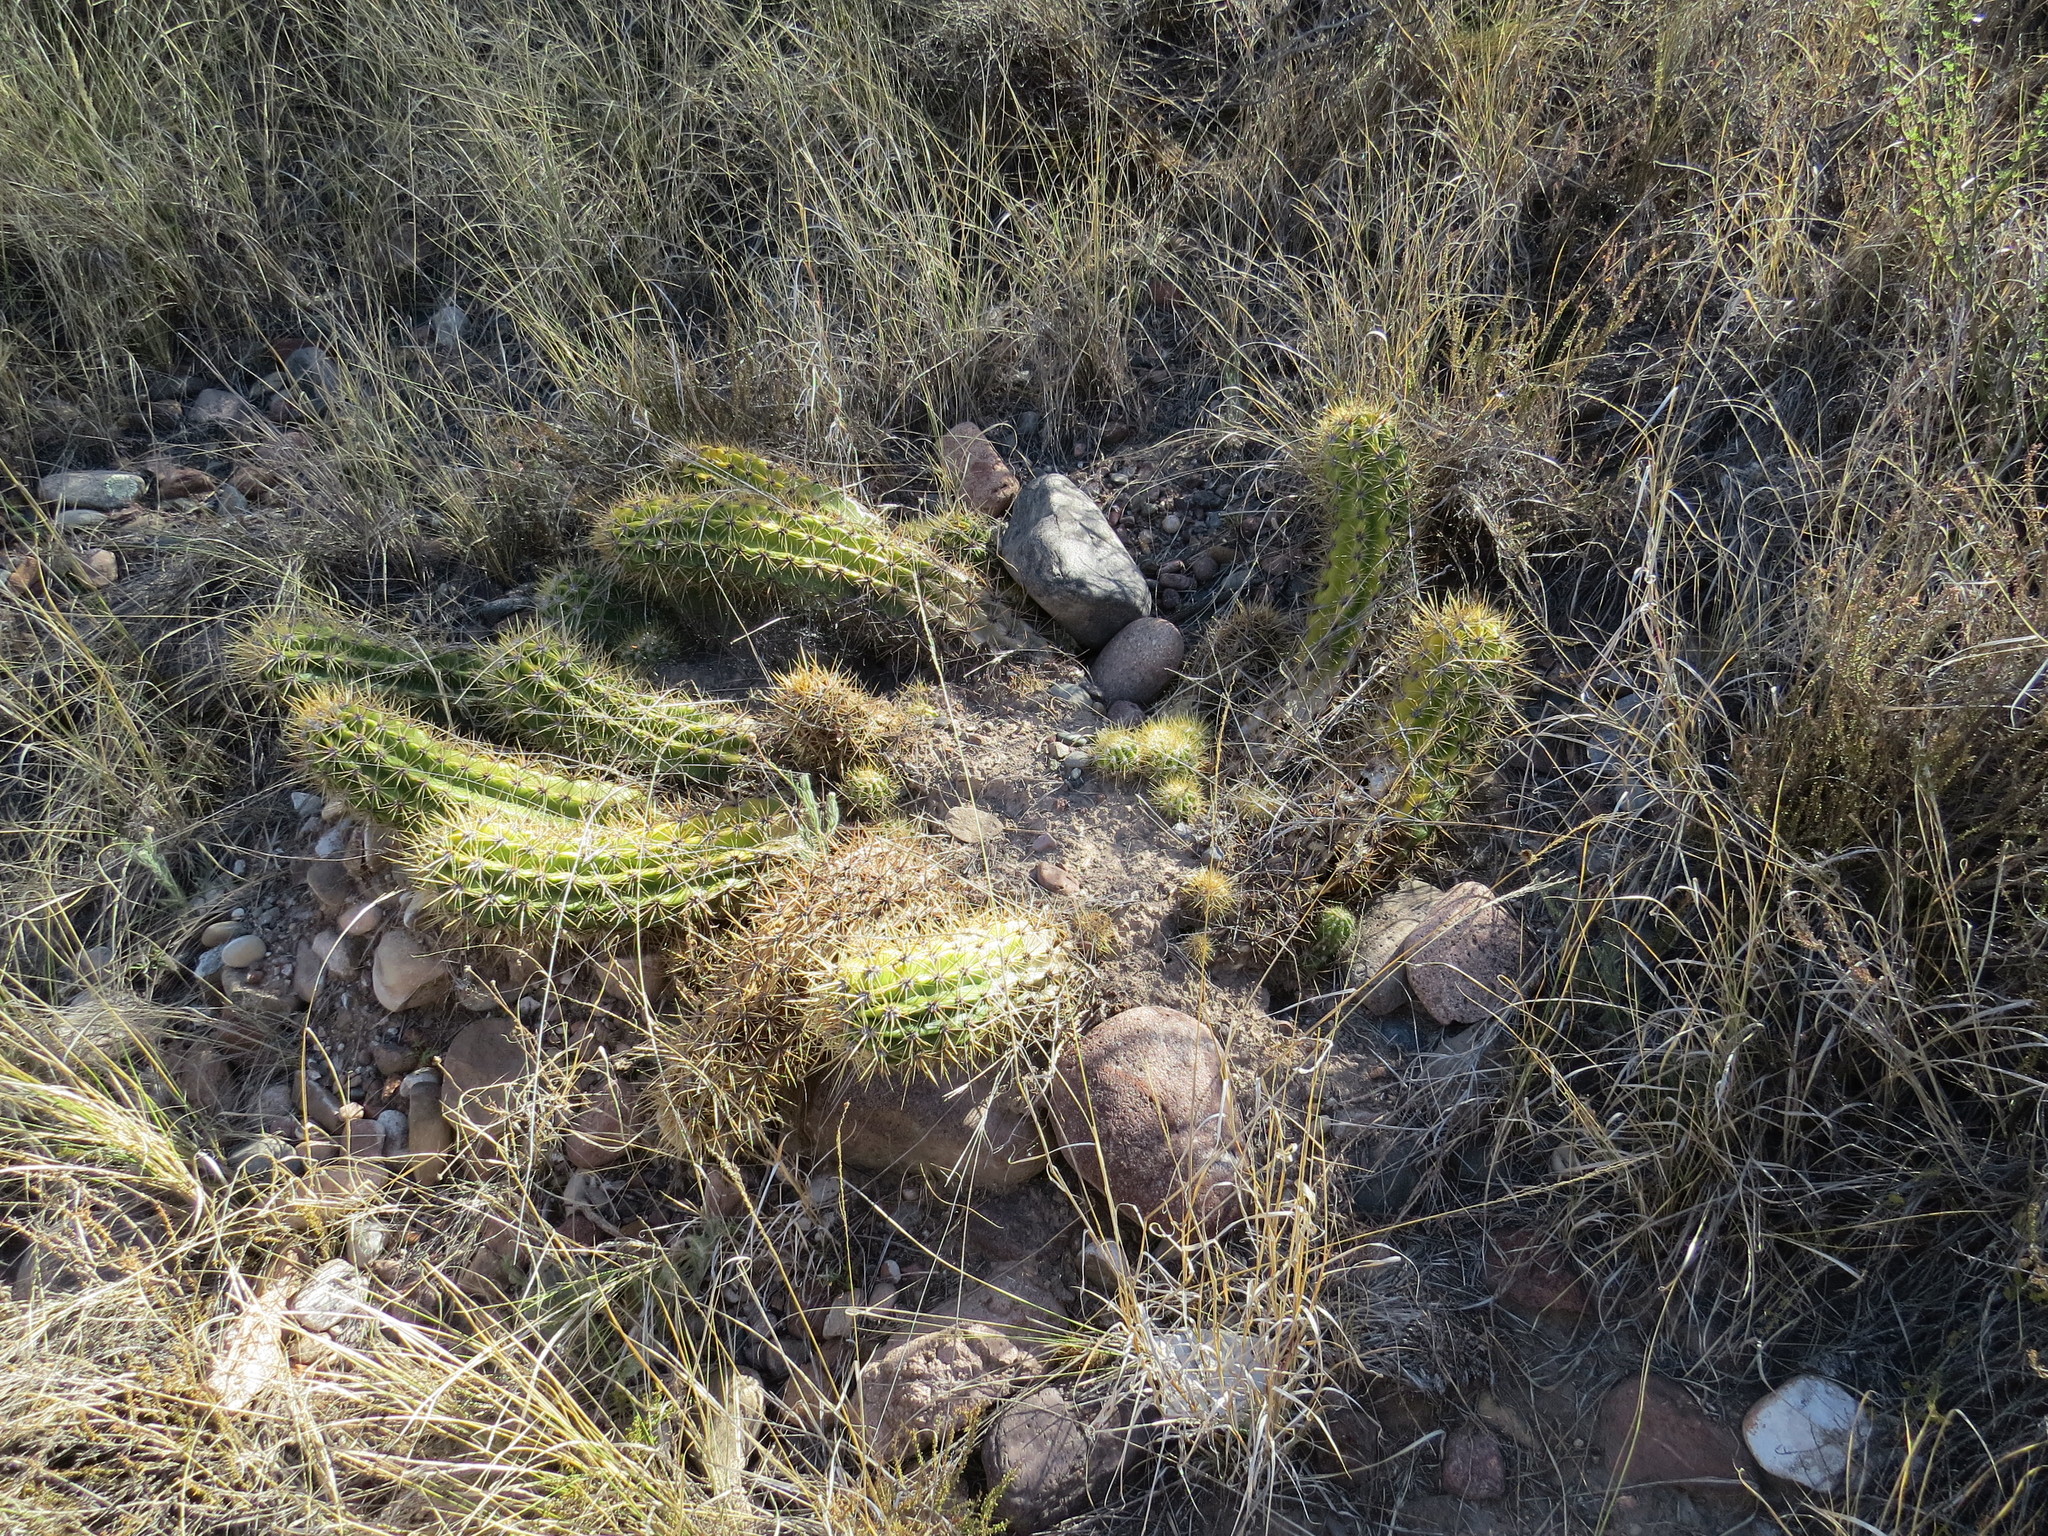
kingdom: Plantae
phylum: Tracheophyta
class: Magnoliopsida
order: Caryophyllales
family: Cactaceae
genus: Soehrensia
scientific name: Soehrensia candicans
